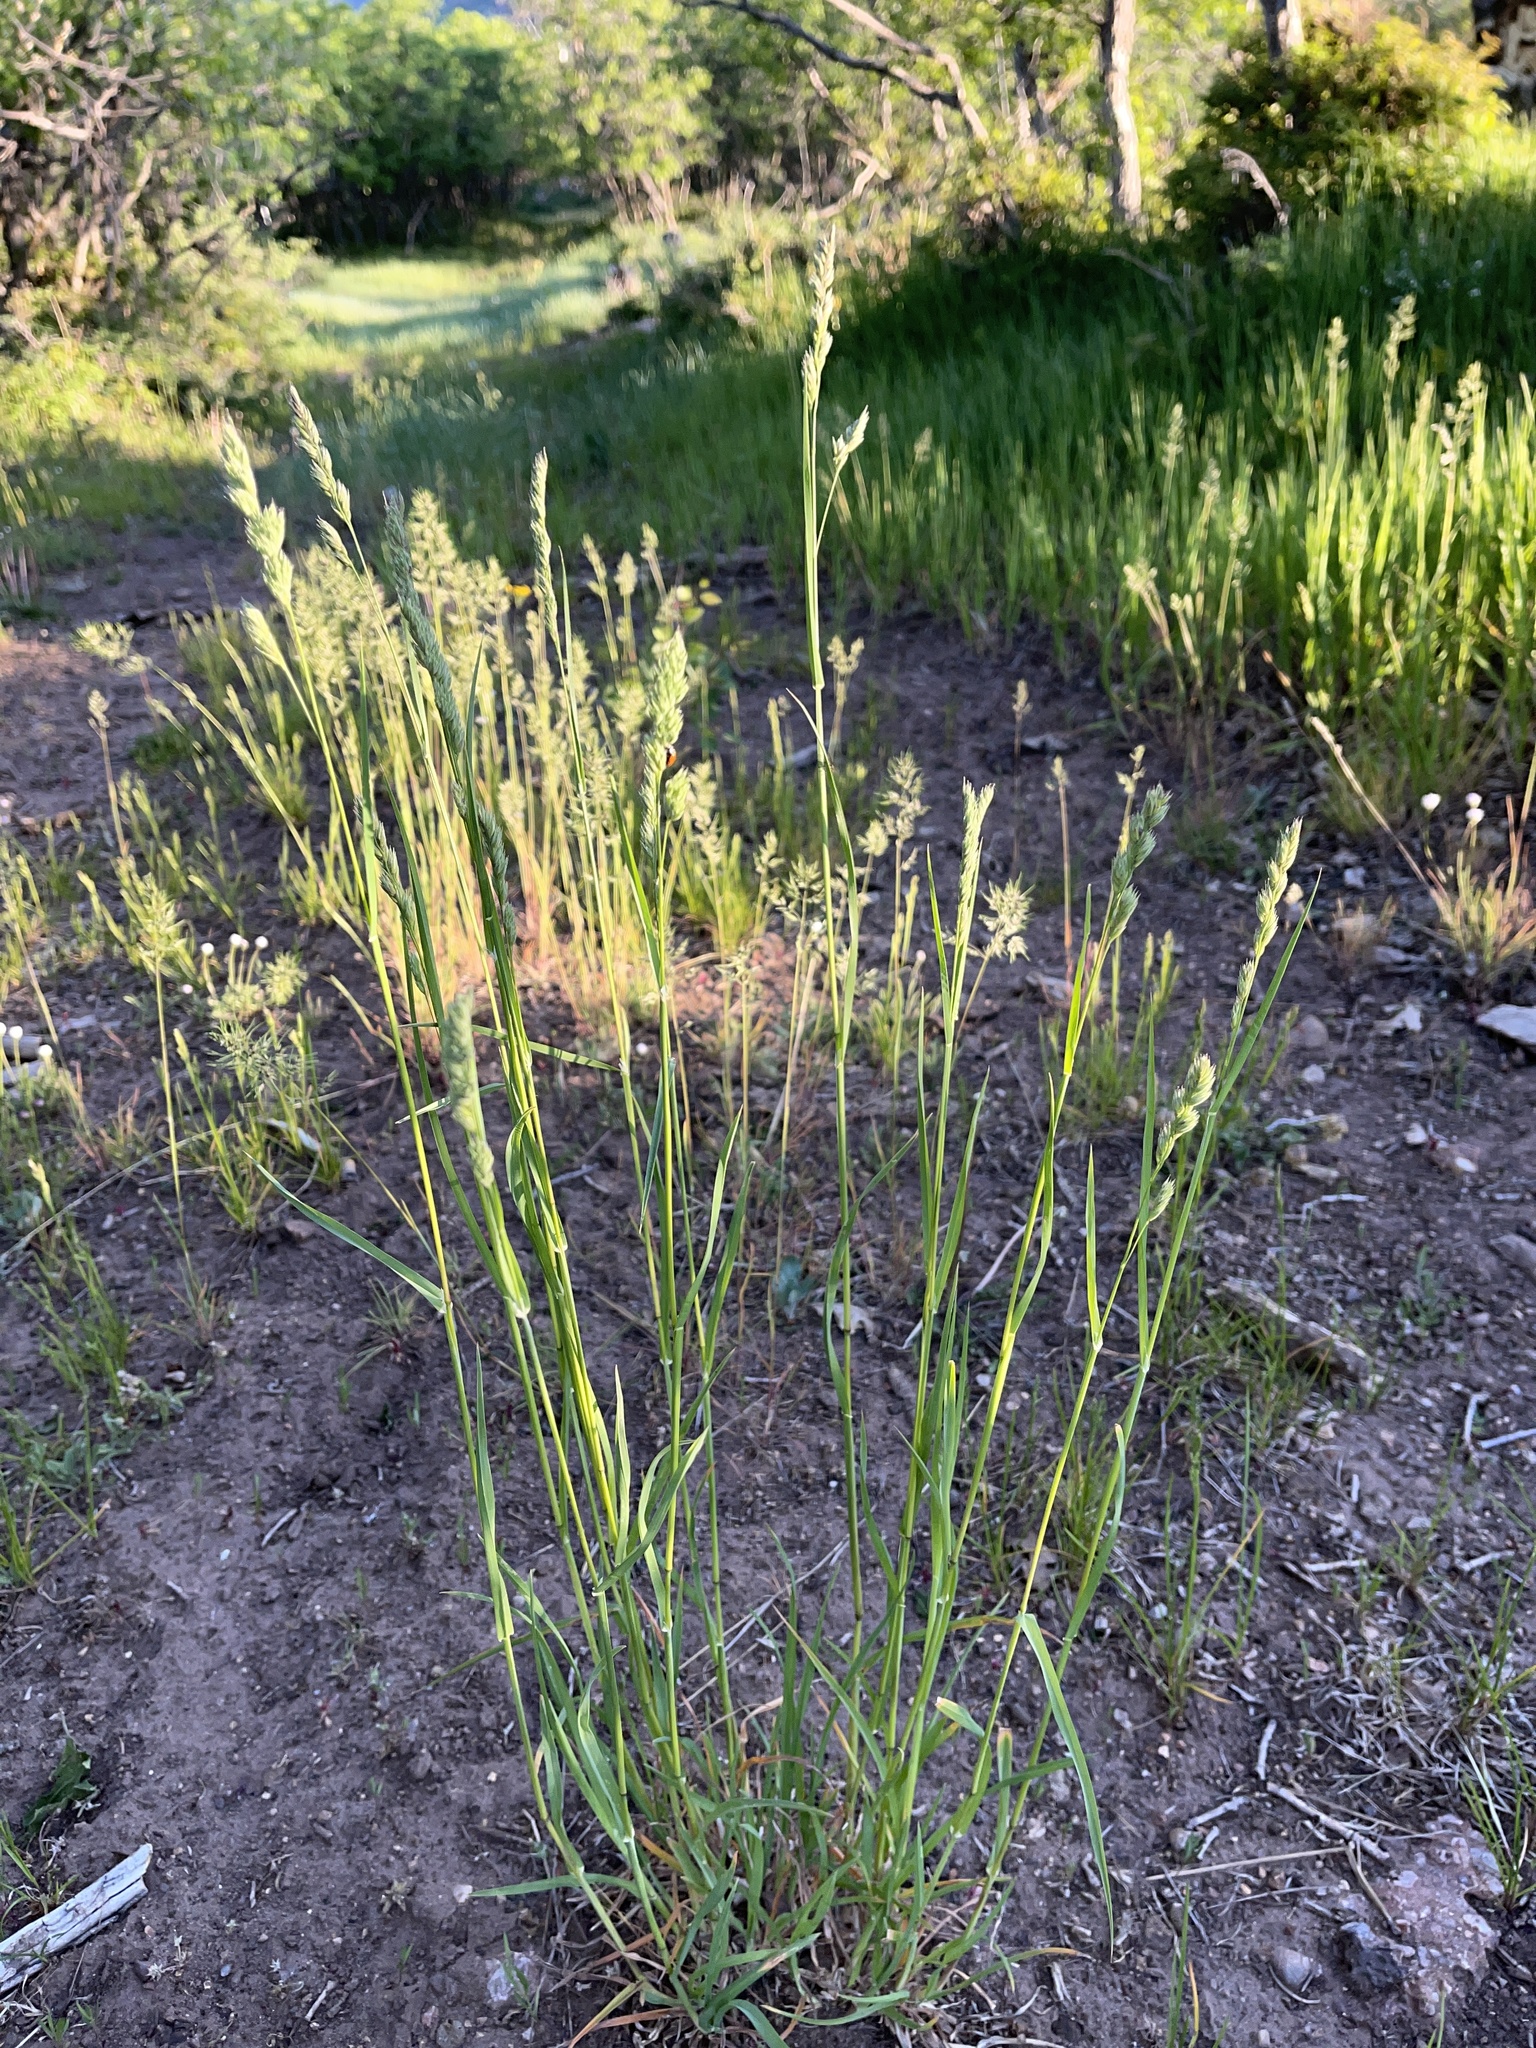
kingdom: Plantae
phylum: Tracheophyta
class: Liliopsida
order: Poales
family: Poaceae
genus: Dactylis
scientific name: Dactylis glomerata
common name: Orchardgrass
